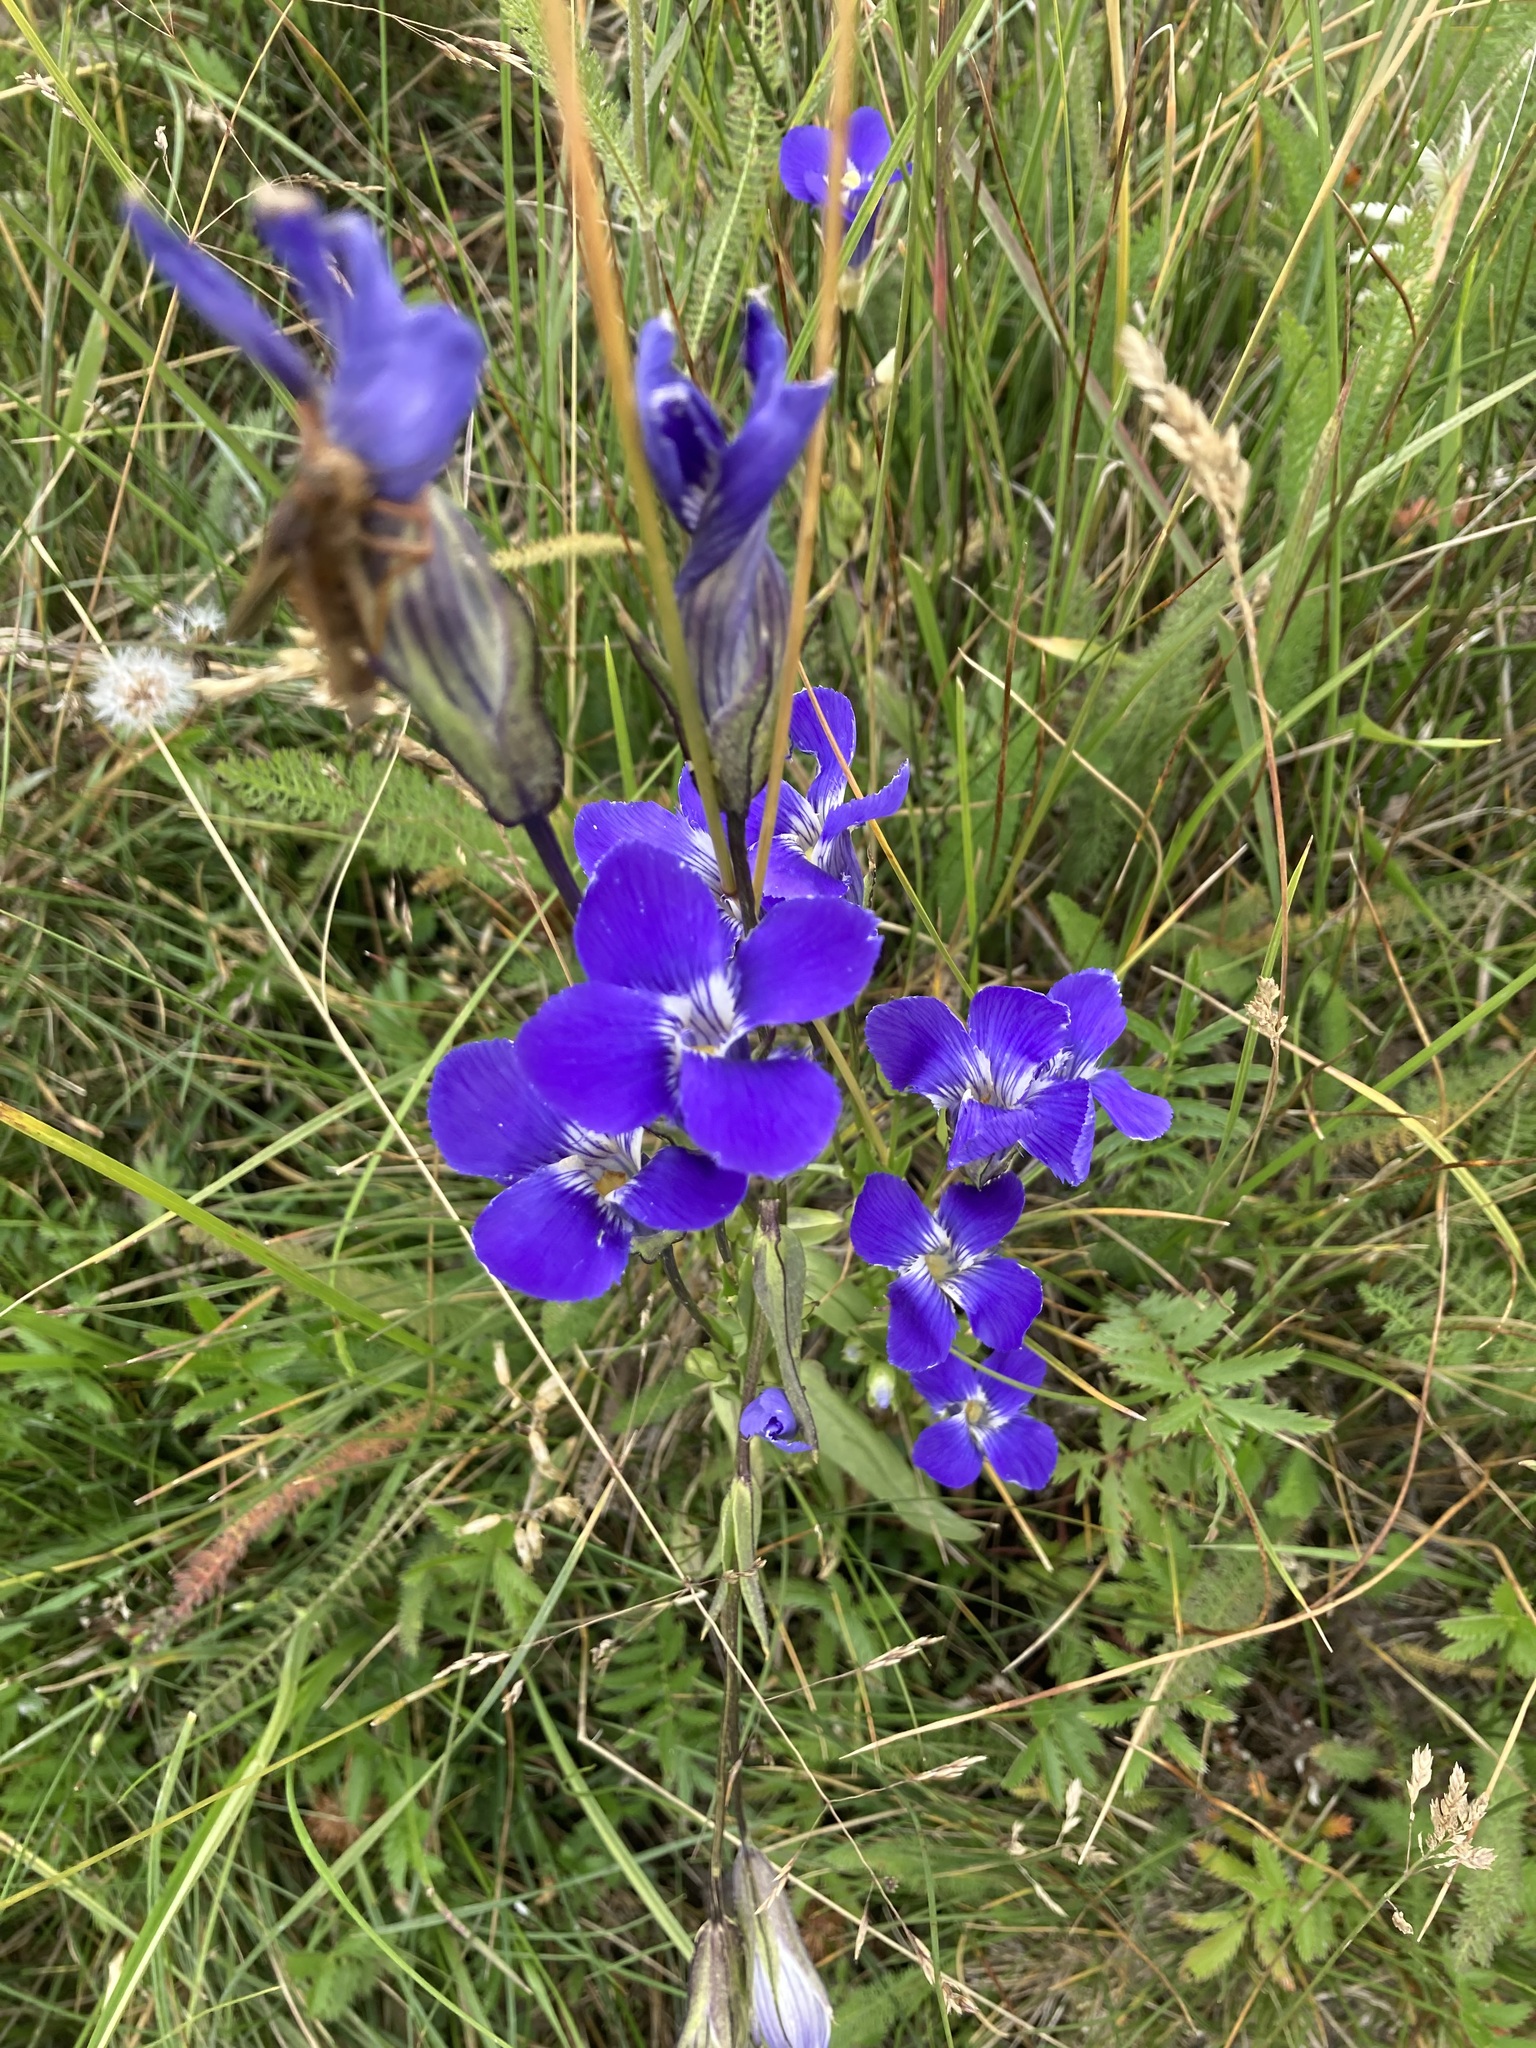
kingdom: Plantae
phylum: Tracheophyta
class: Magnoliopsida
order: Gentianales
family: Gentianaceae
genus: Gentianopsis
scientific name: Gentianopsis thermalis
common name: Rocky mountain fringed-gentian
